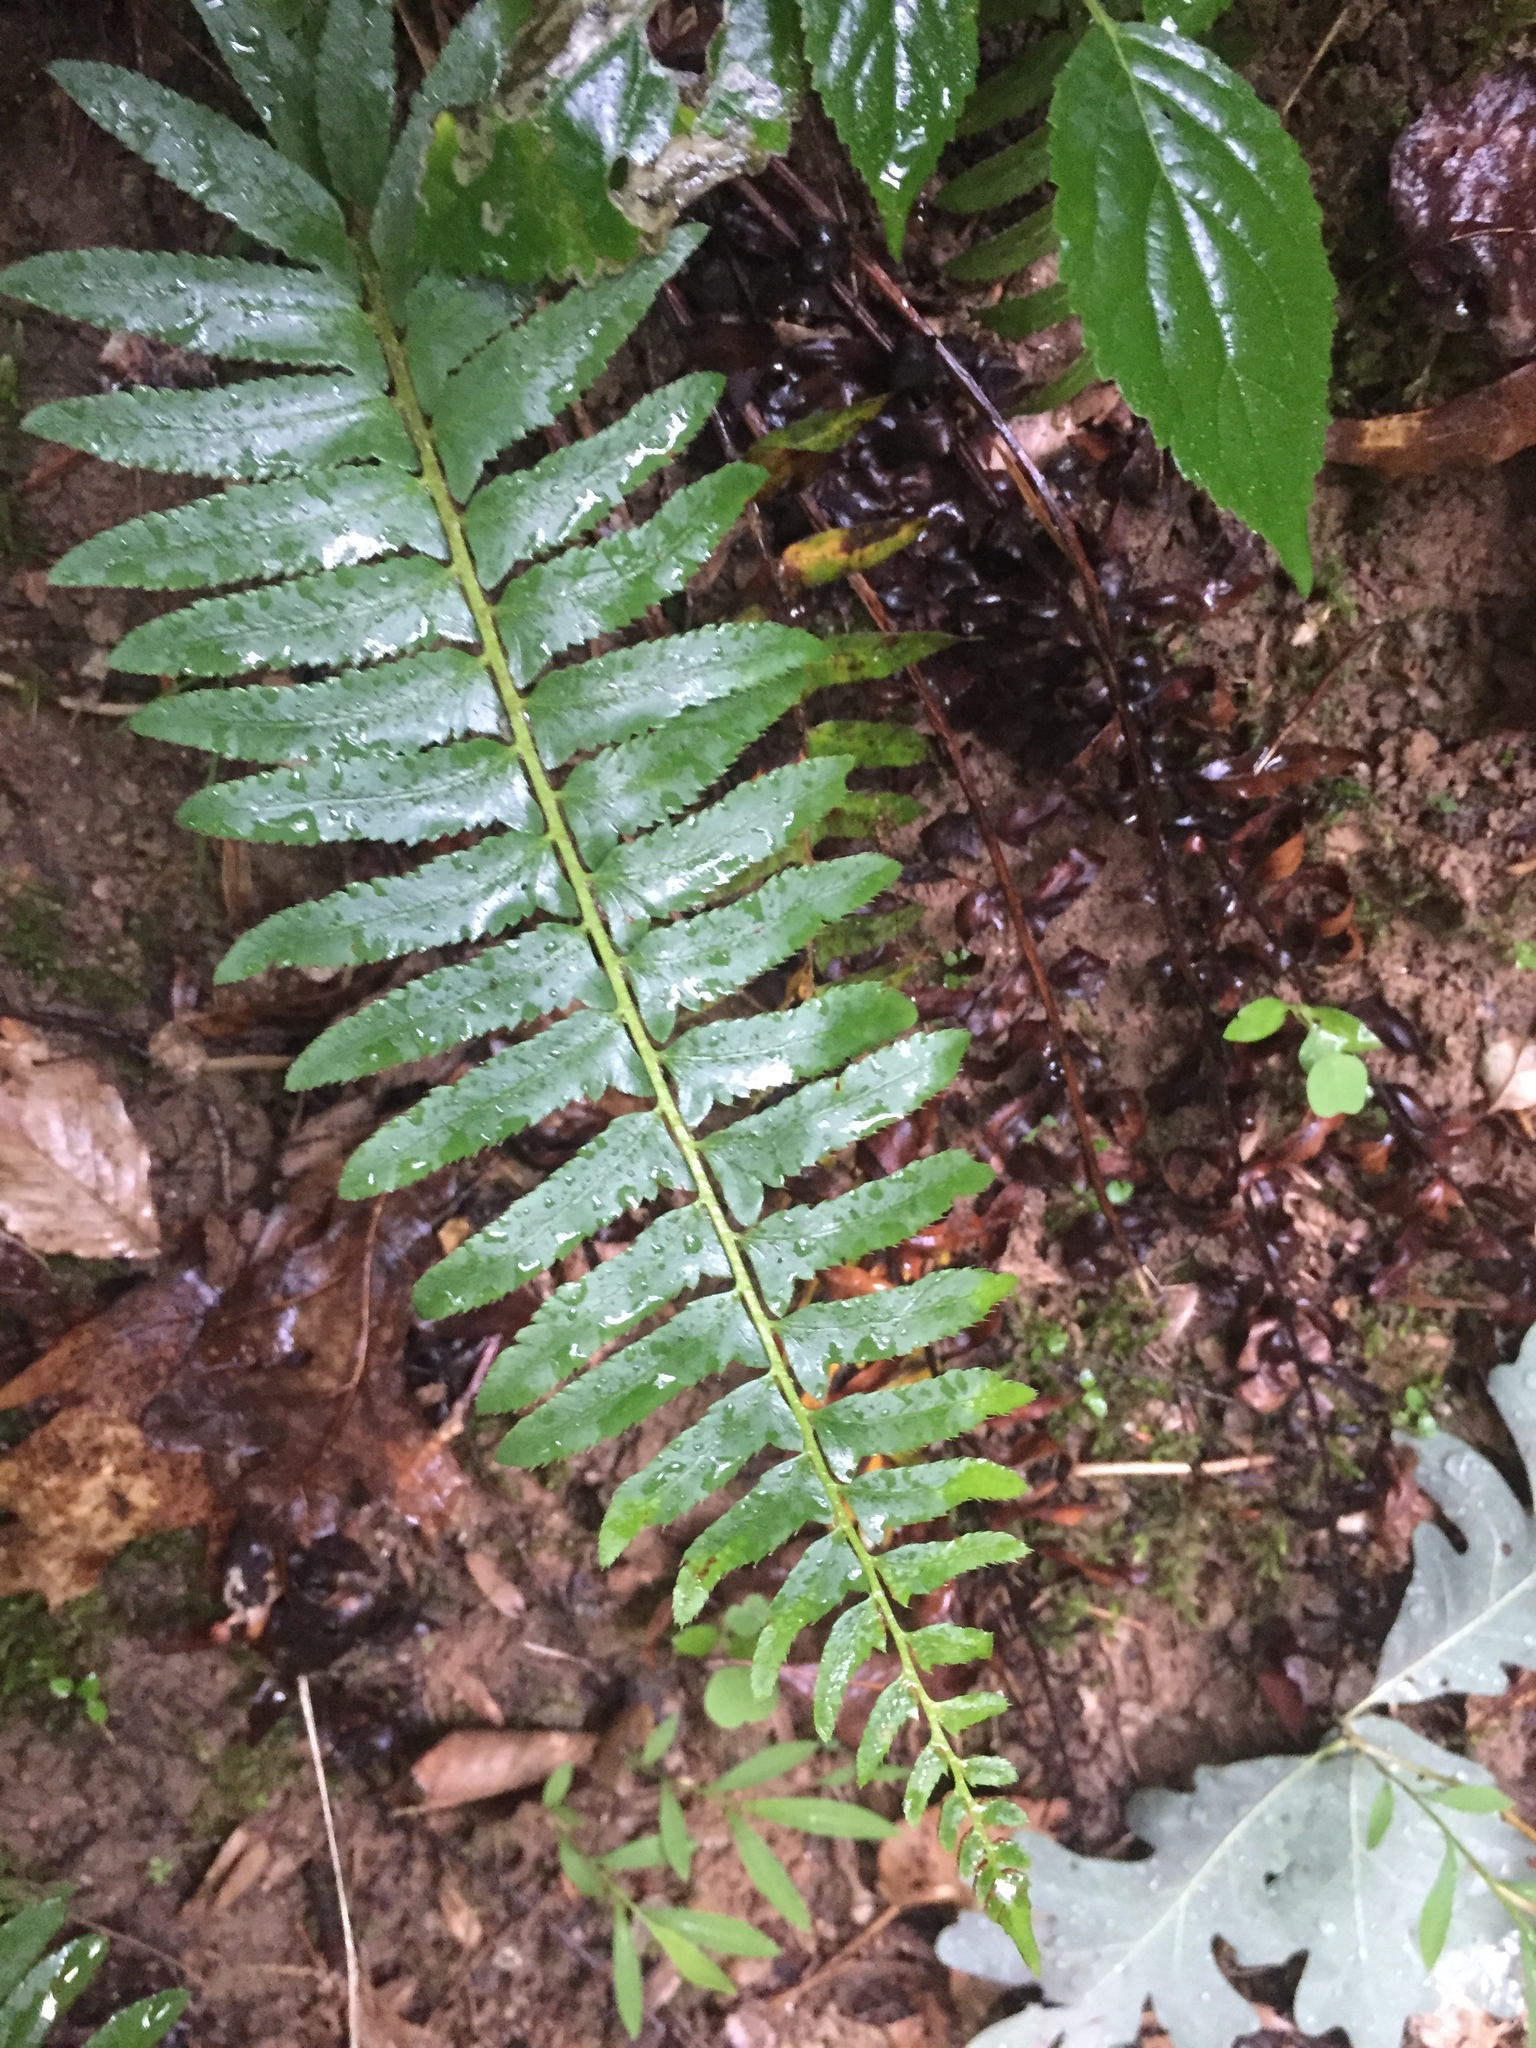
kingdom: Plantae
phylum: Tracheophyta
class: Polypodiopsida
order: Polypodiales
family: Dryopteridaceae
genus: Polystichum
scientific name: Polystichum acrostichoides
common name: Christmas fern
